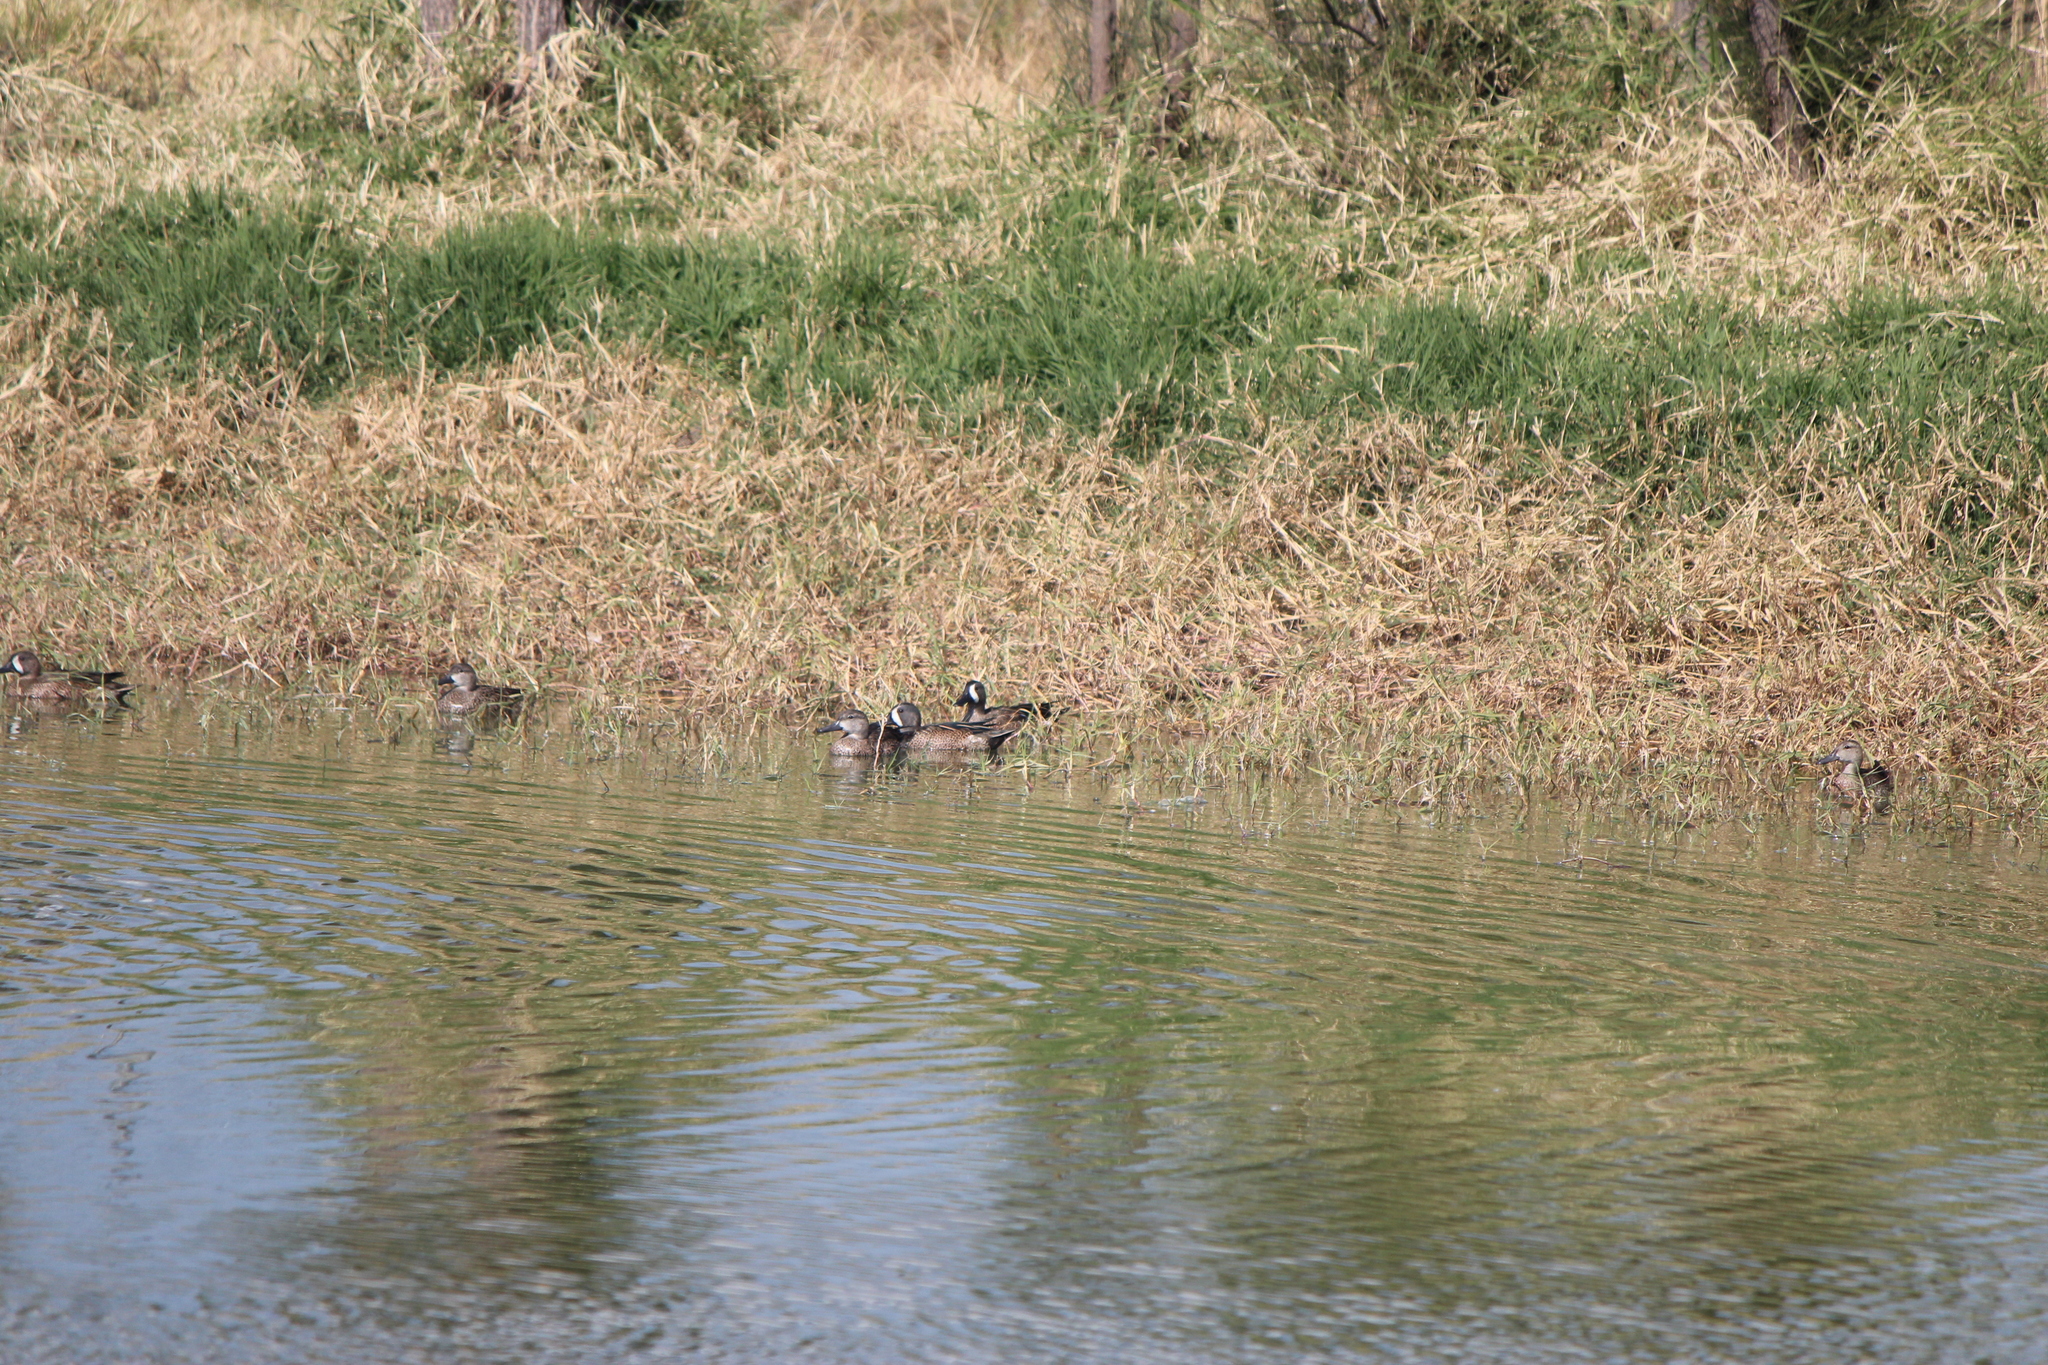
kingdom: Animalia
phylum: Chordata
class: Aves
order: Anseriformes
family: Anatidae
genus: Spatula
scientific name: Spatula discors
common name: Blue-winged teal
